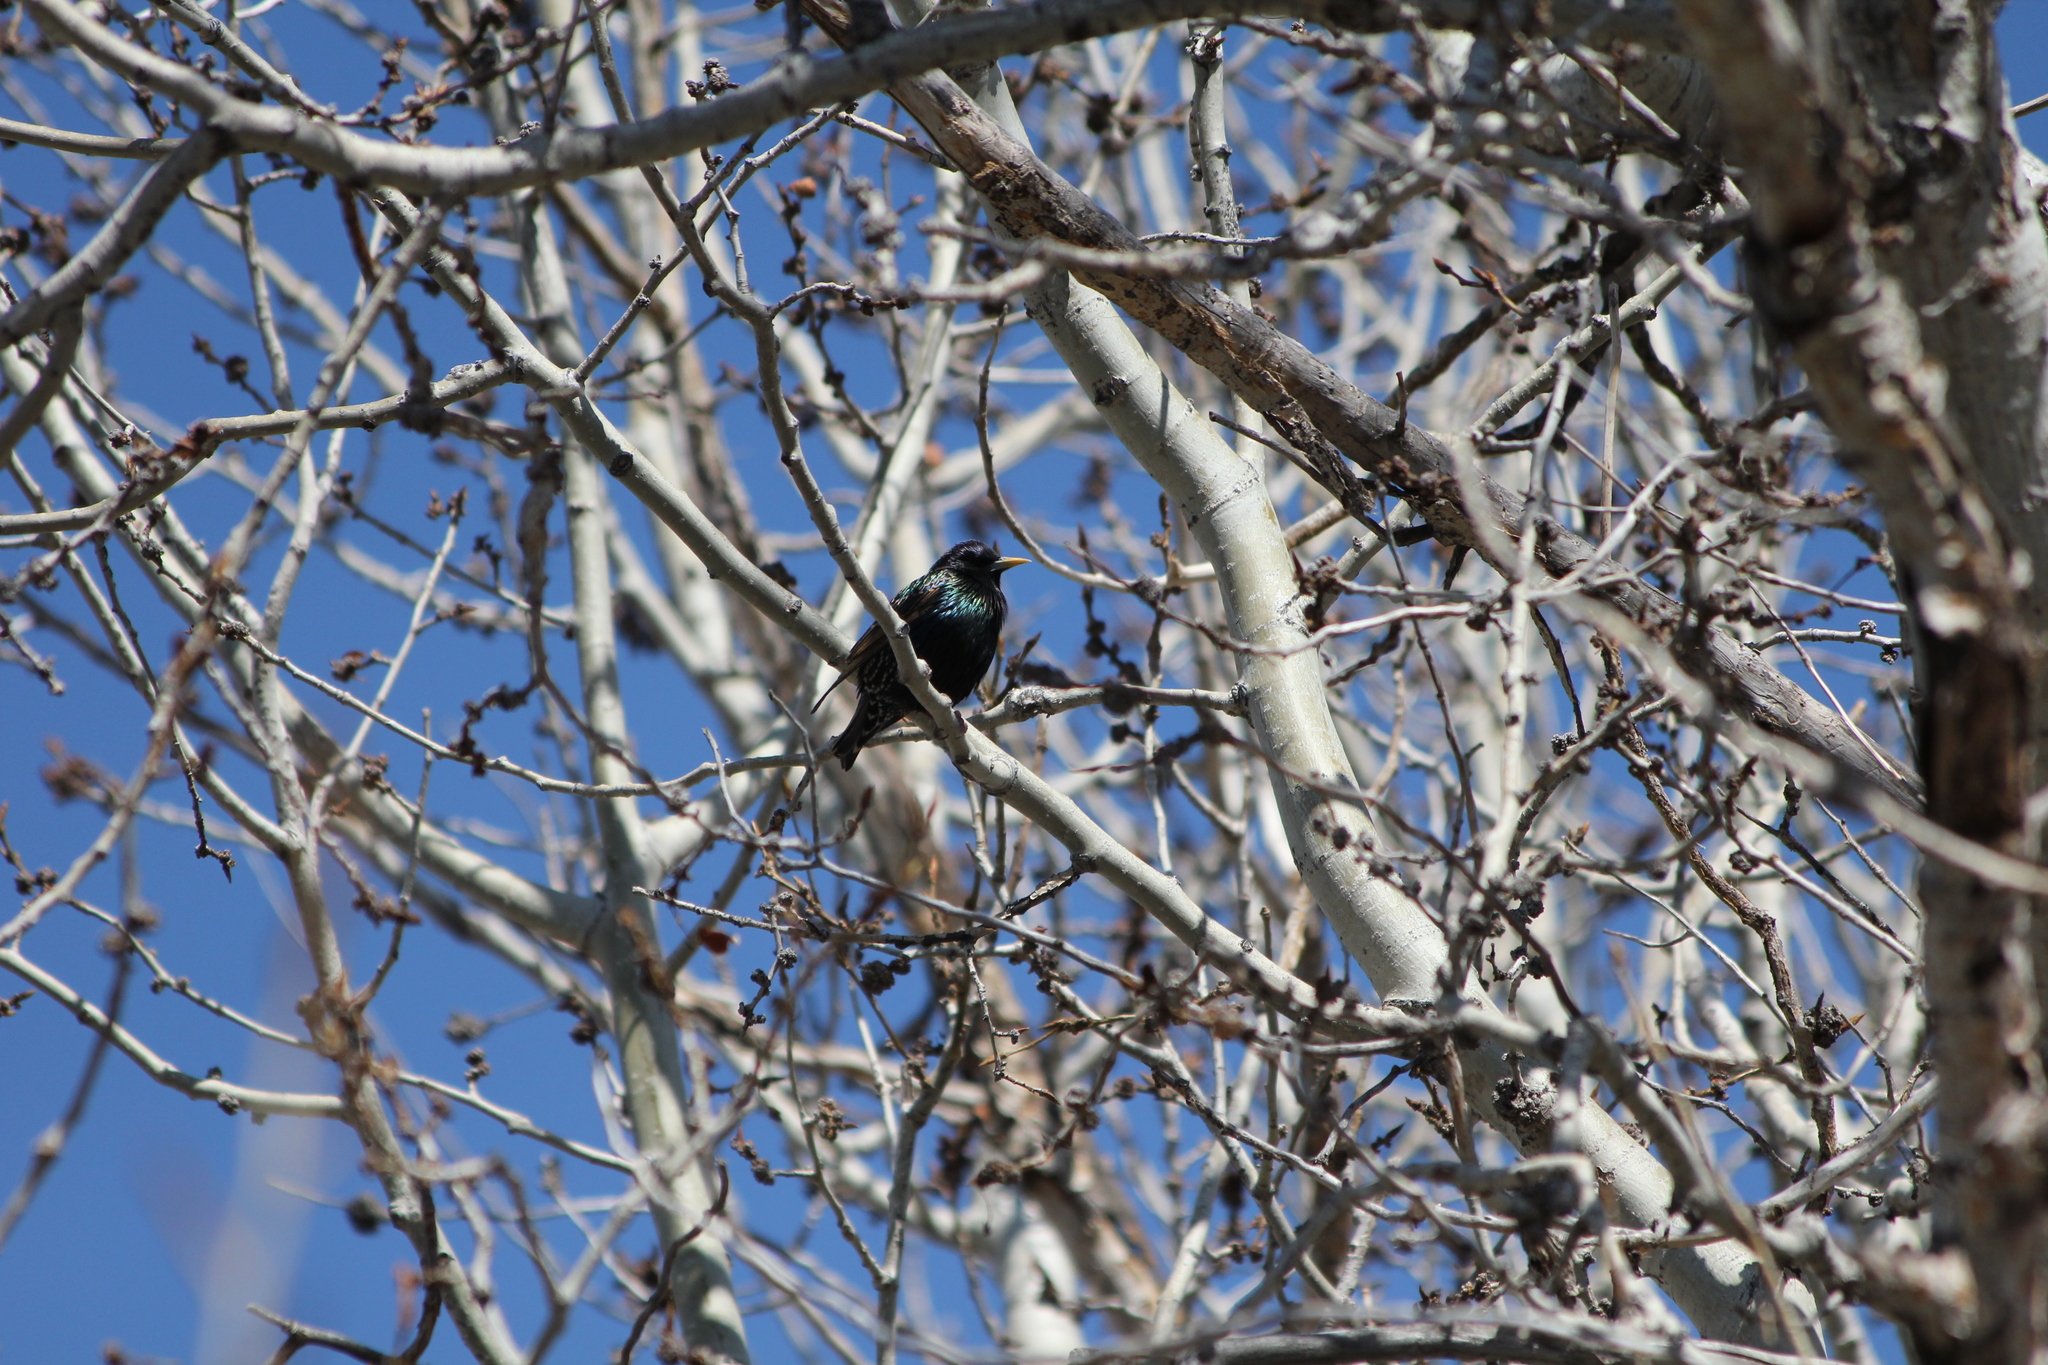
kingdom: Animalia
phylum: Chordata
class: Aves
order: Passeriformes
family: Sturnidae
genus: Sturnus
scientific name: Sturnus vulgaris
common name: Common starling
